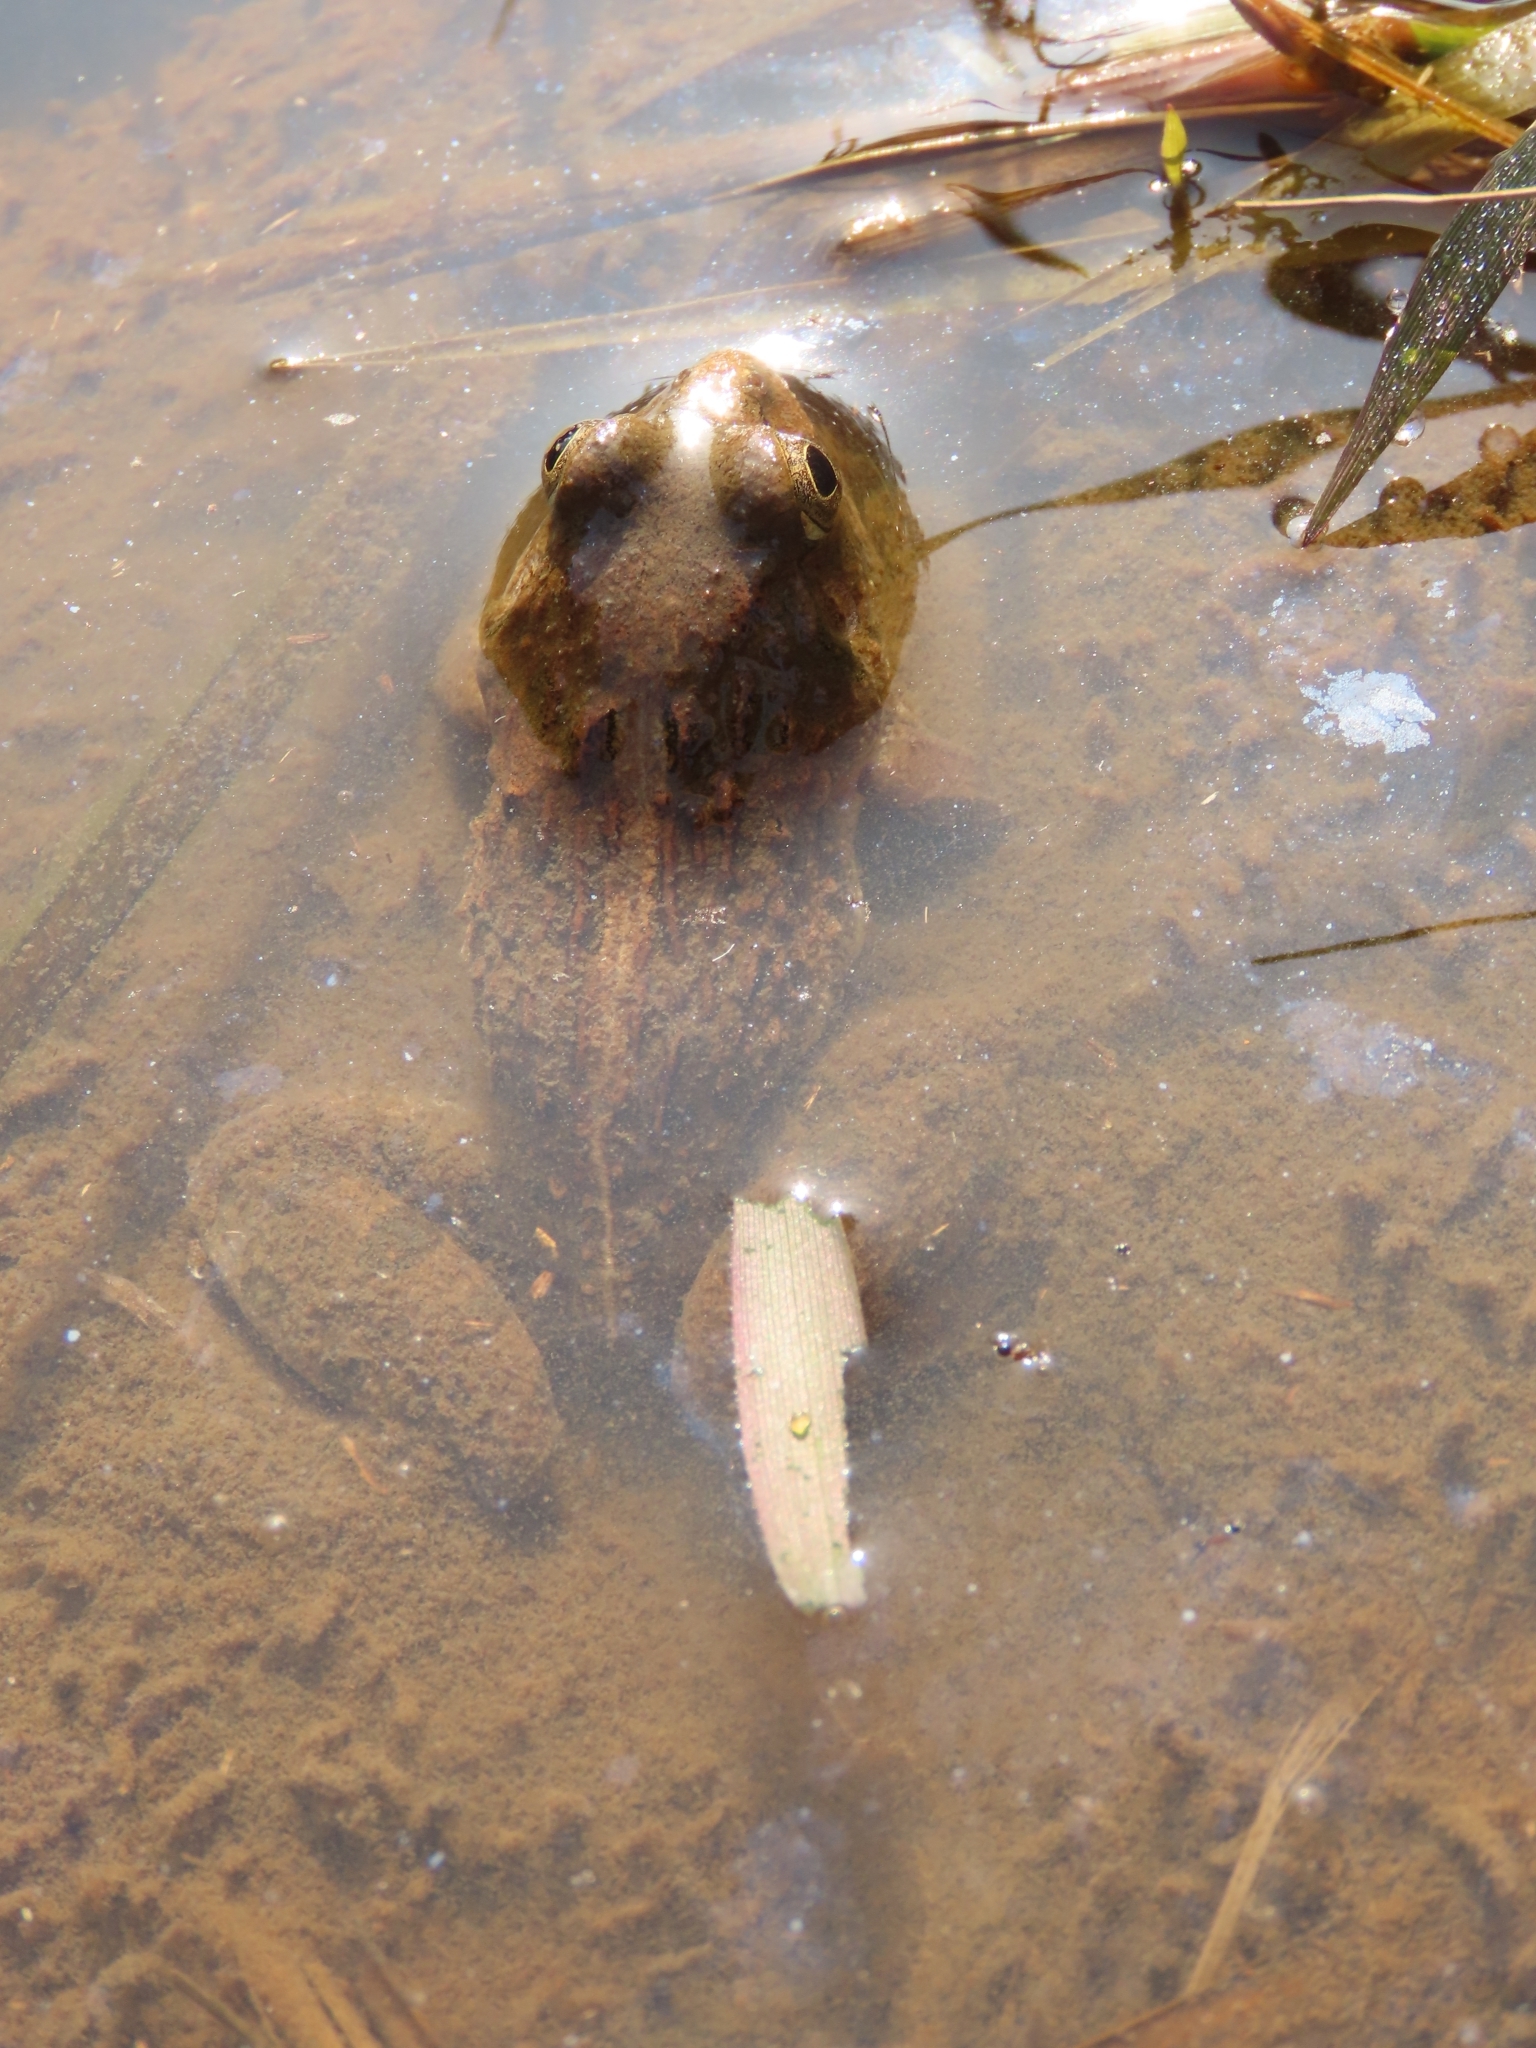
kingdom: Animalia
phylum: Chordata
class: Amphibia
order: Anura
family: Dicroglossidae
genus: Fejervarya
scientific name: Fejervarya limnocharis
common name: Asian grass frog/common pond frog/field frog/grass frog/indian rice frog
